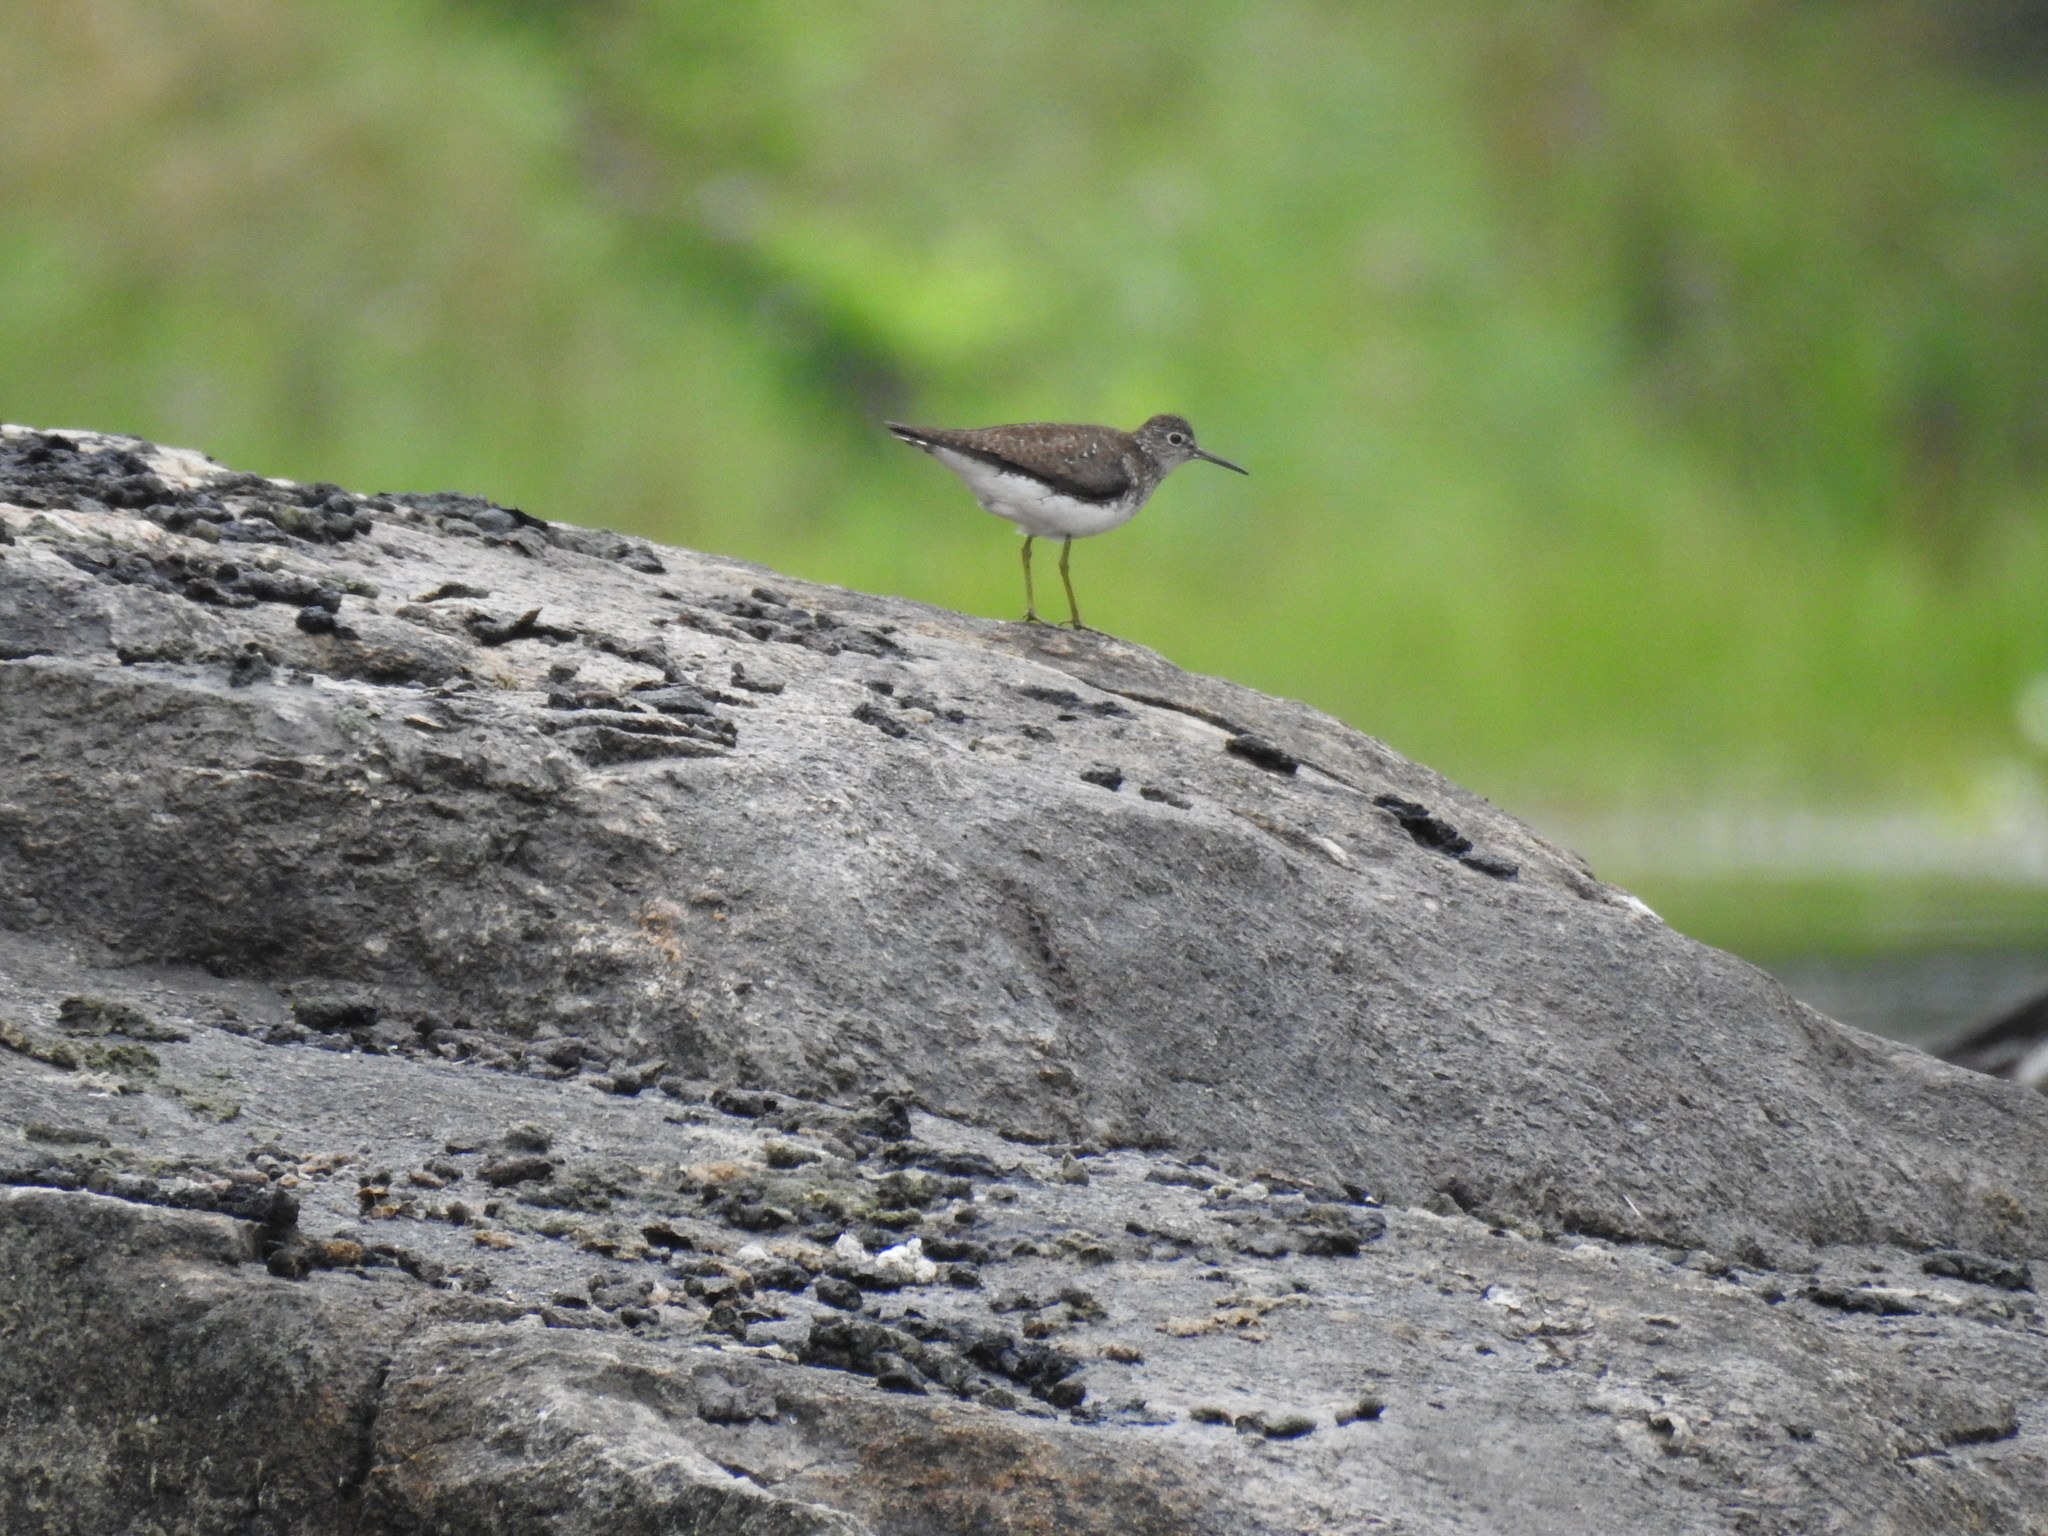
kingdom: Animalia
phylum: Chordata
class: Aves
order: Charadriiformes
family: Scolopacidae
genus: Tringa
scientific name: Tringa solitaria
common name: Solitary sandpiper
